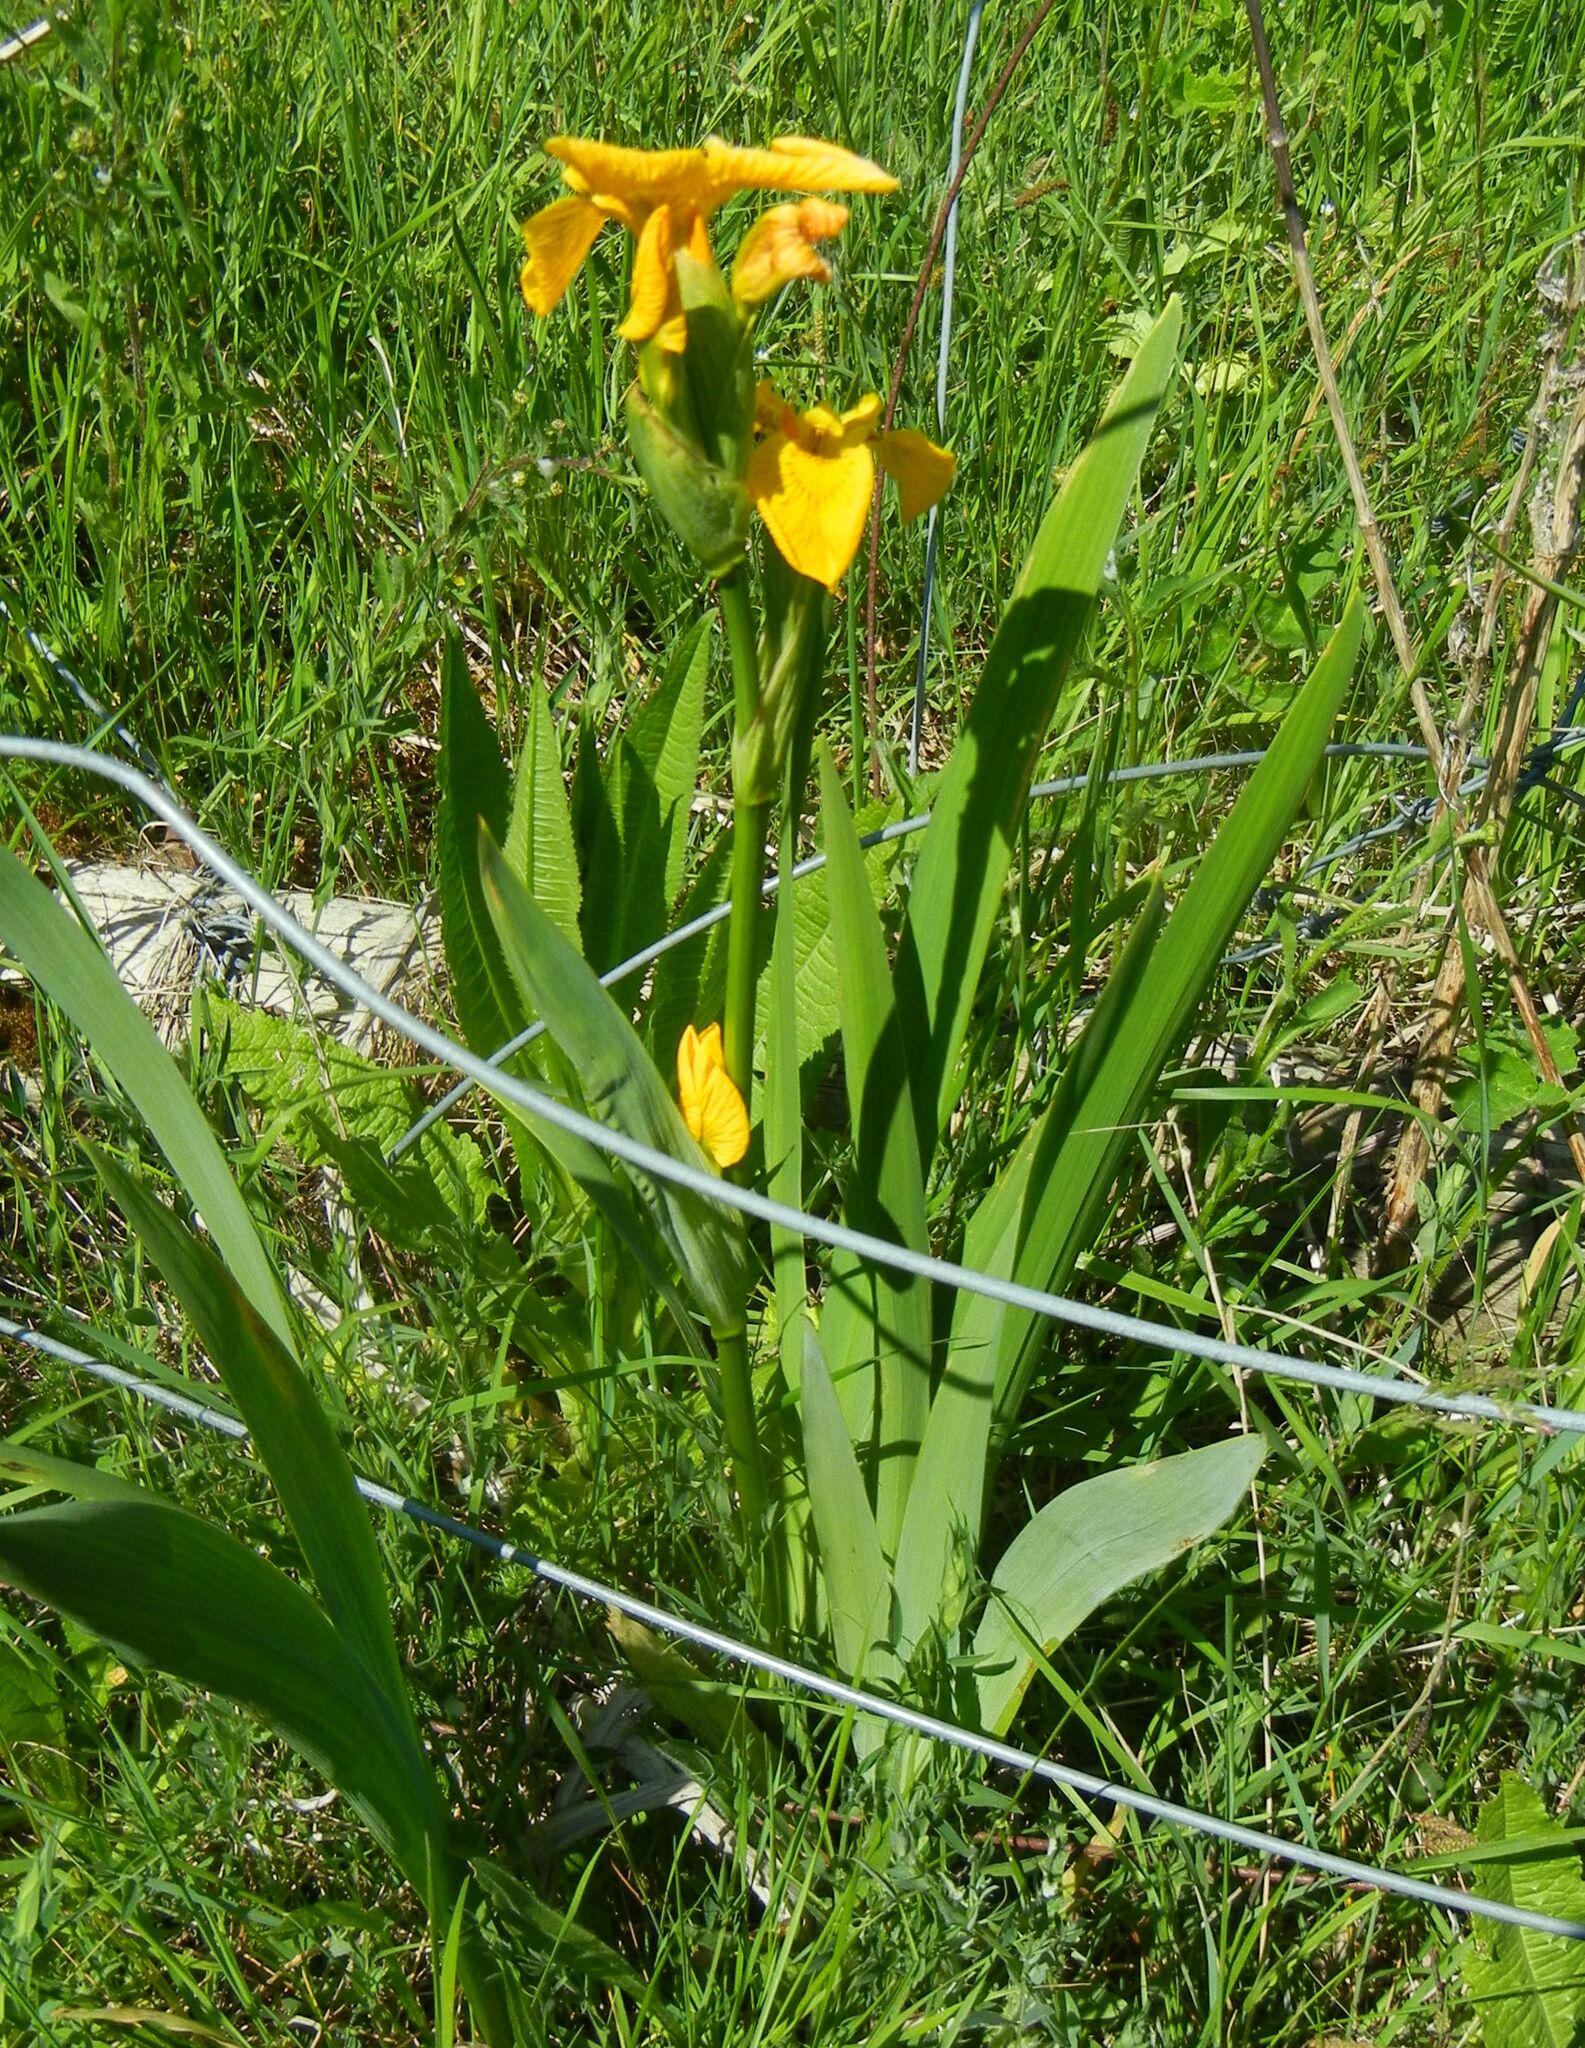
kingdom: Plantae
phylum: Tracheophyta
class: Liliopsida
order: Asparagales
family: Iridaceae
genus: Iris
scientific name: Iris pseudacorus
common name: Yellow flag
